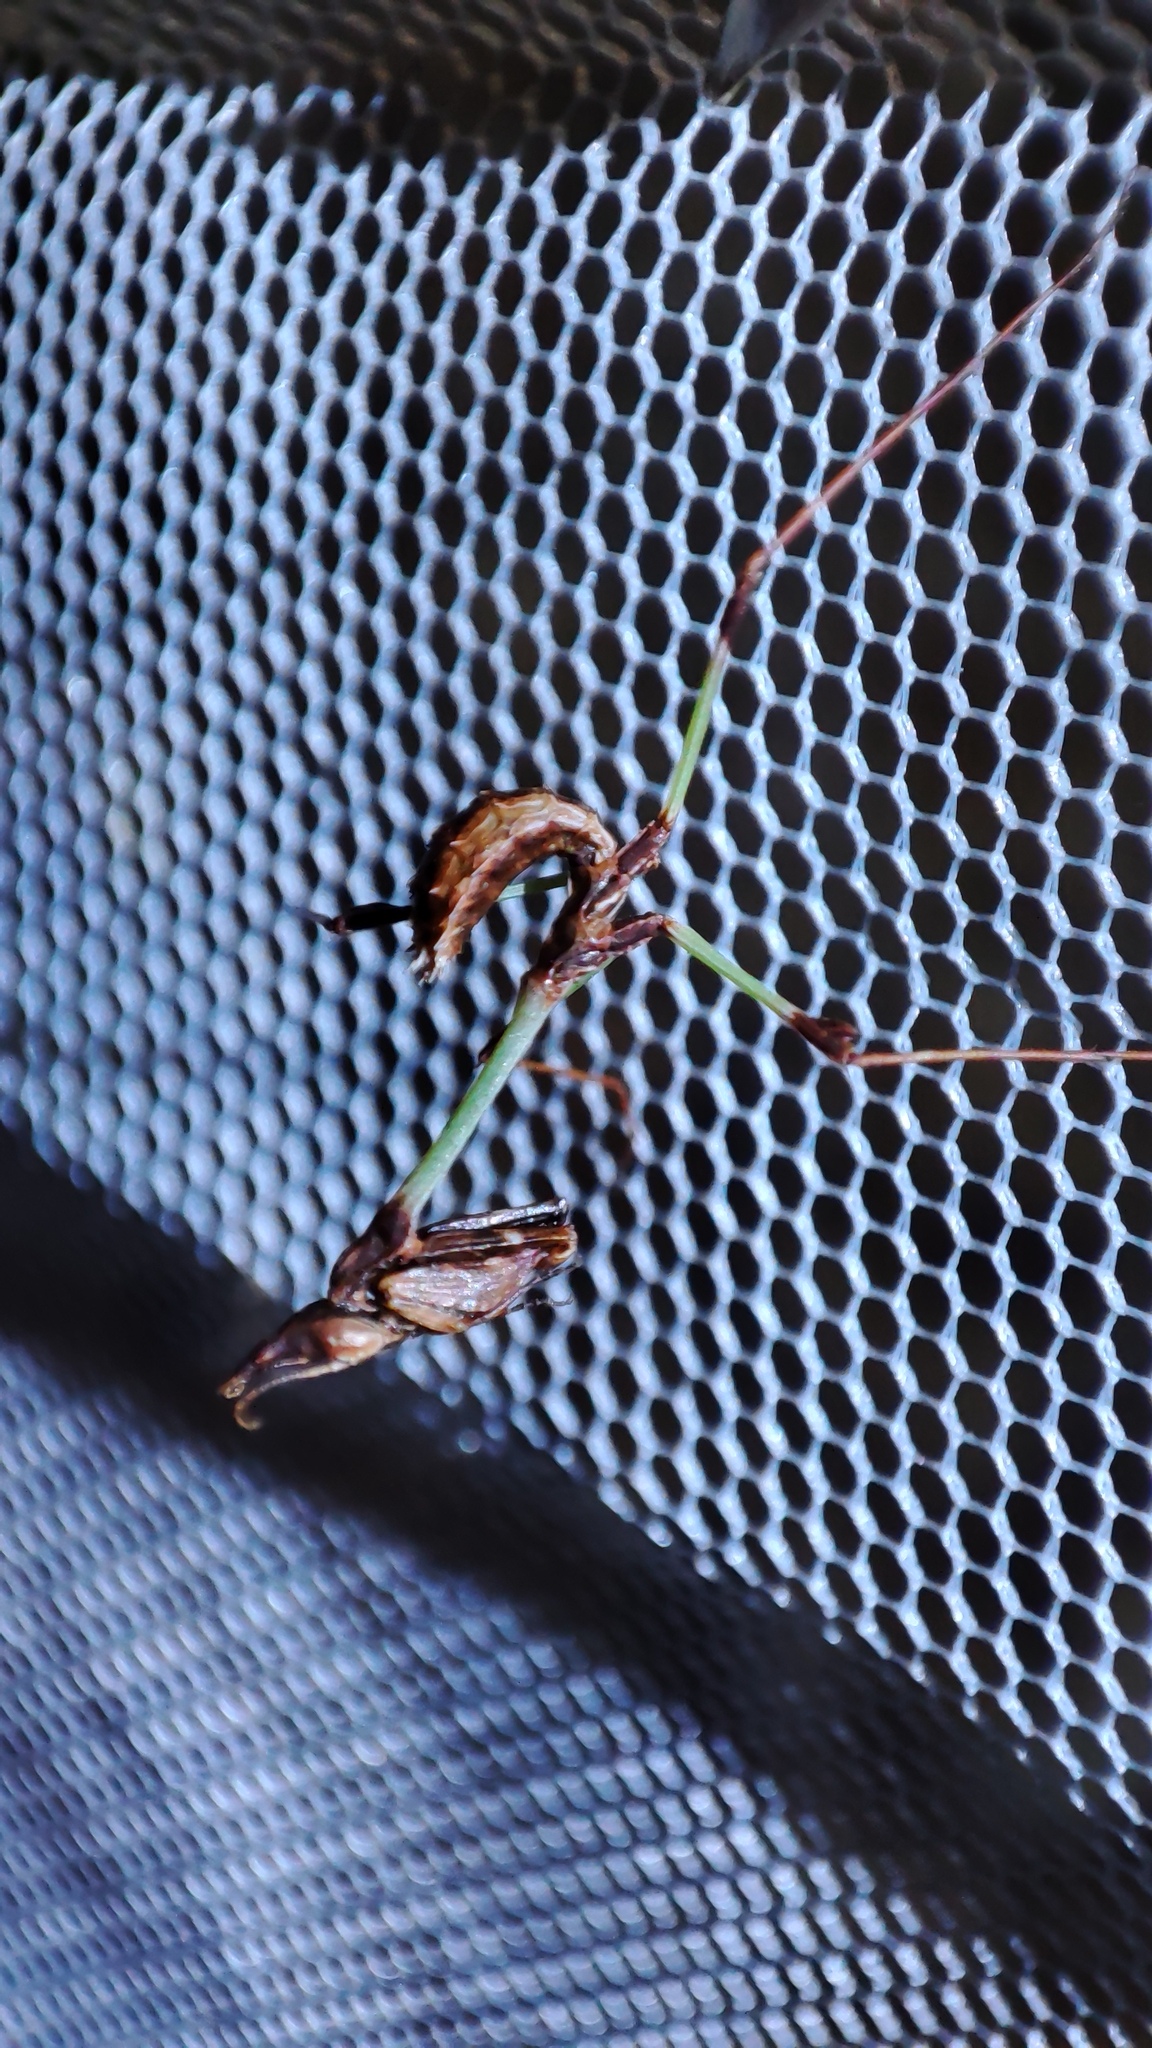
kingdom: Animalia
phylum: Arthropoda
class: Insecta
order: Mantodea
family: Empusidae
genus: Hemiempusa
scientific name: Hemiempusa capensis
